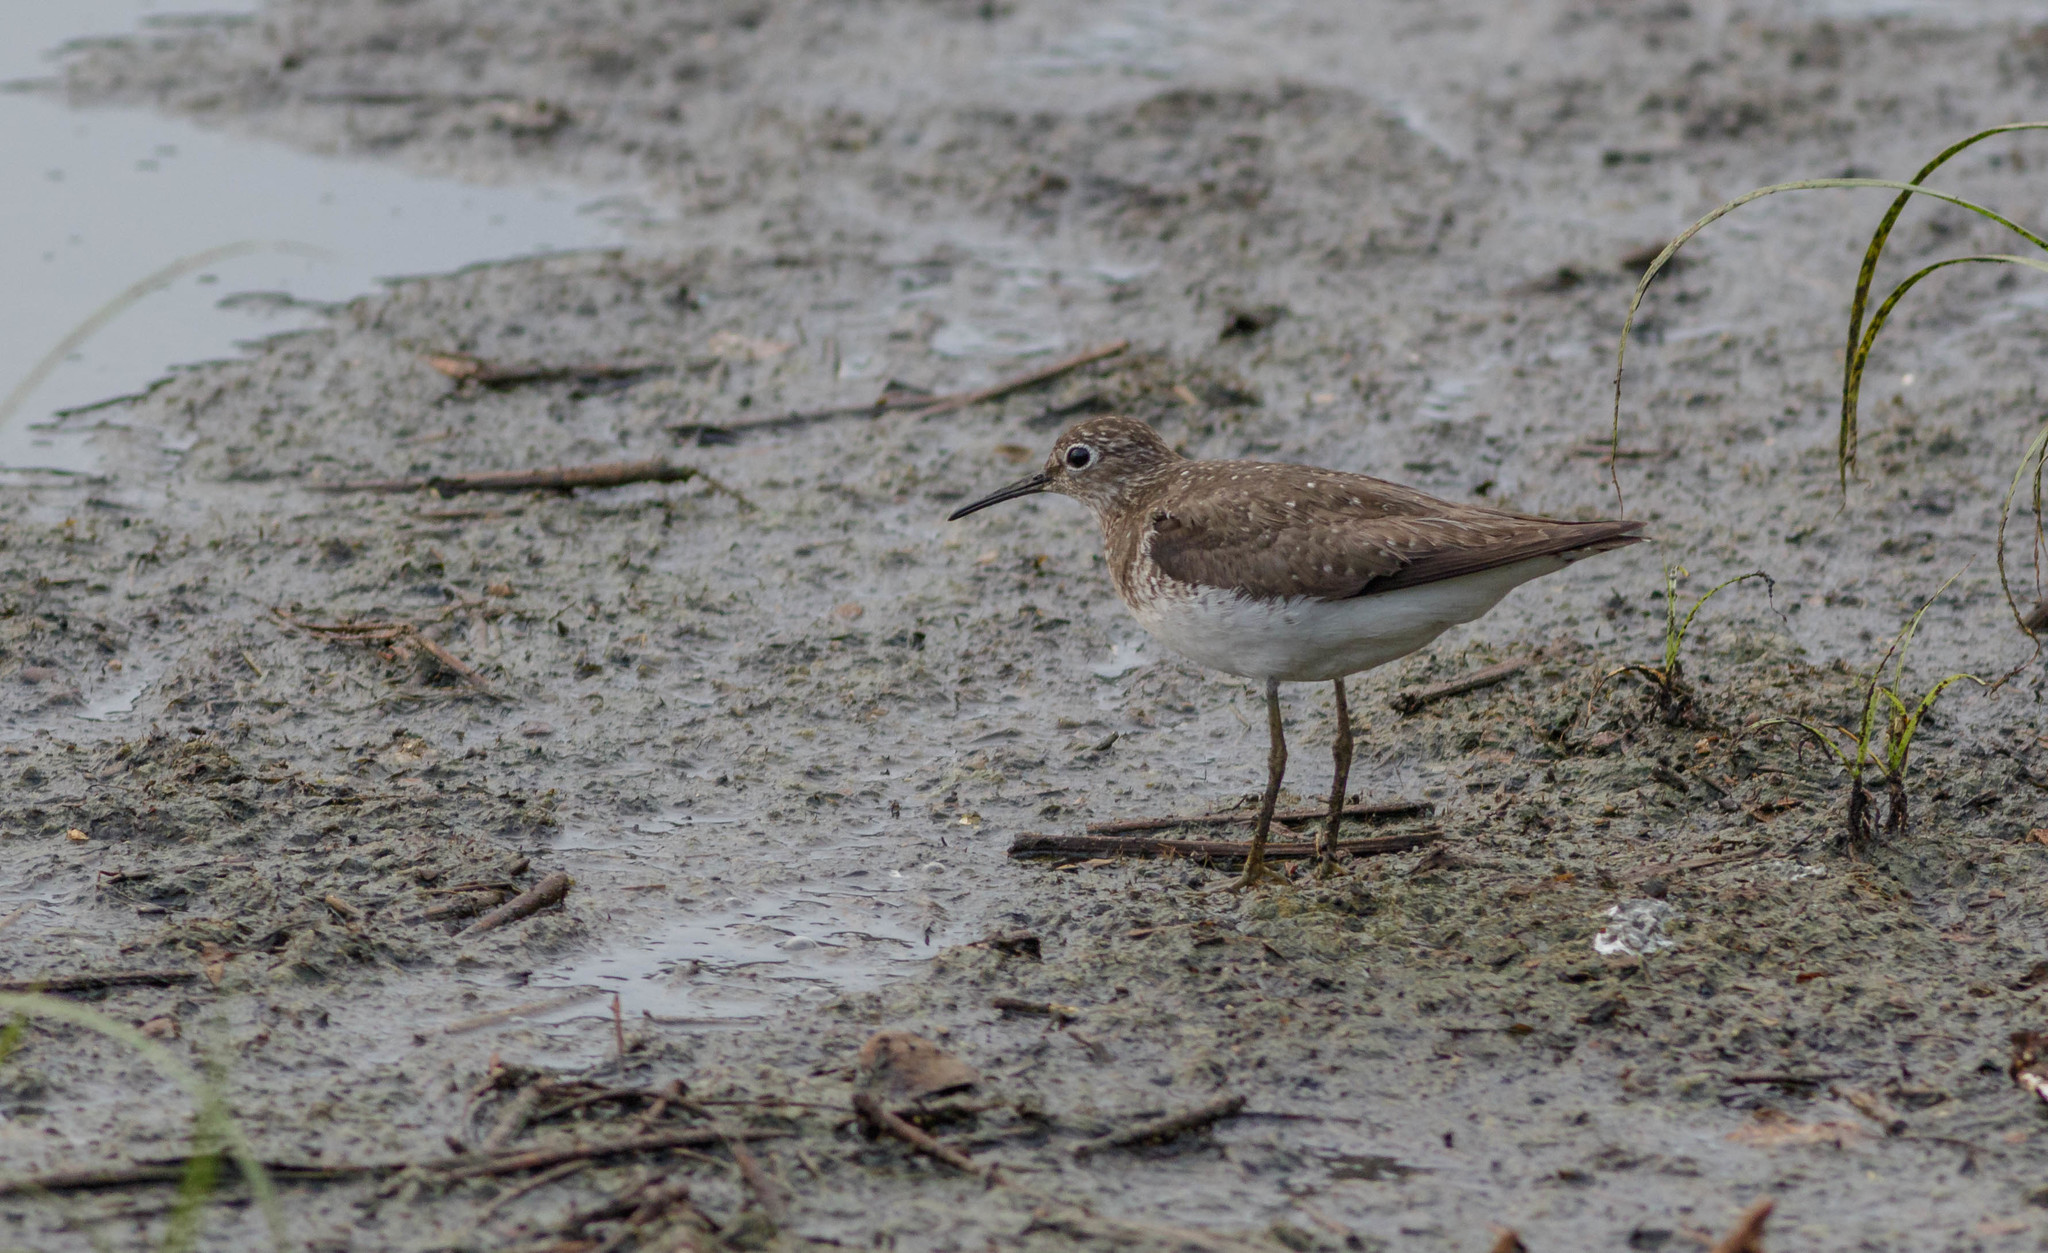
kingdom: Animalia
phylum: Chordata
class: Aves
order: Charadriiformes
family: Scolopacidae
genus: Tringa
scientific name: Tringa solitaria
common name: Solitary sandpiper
